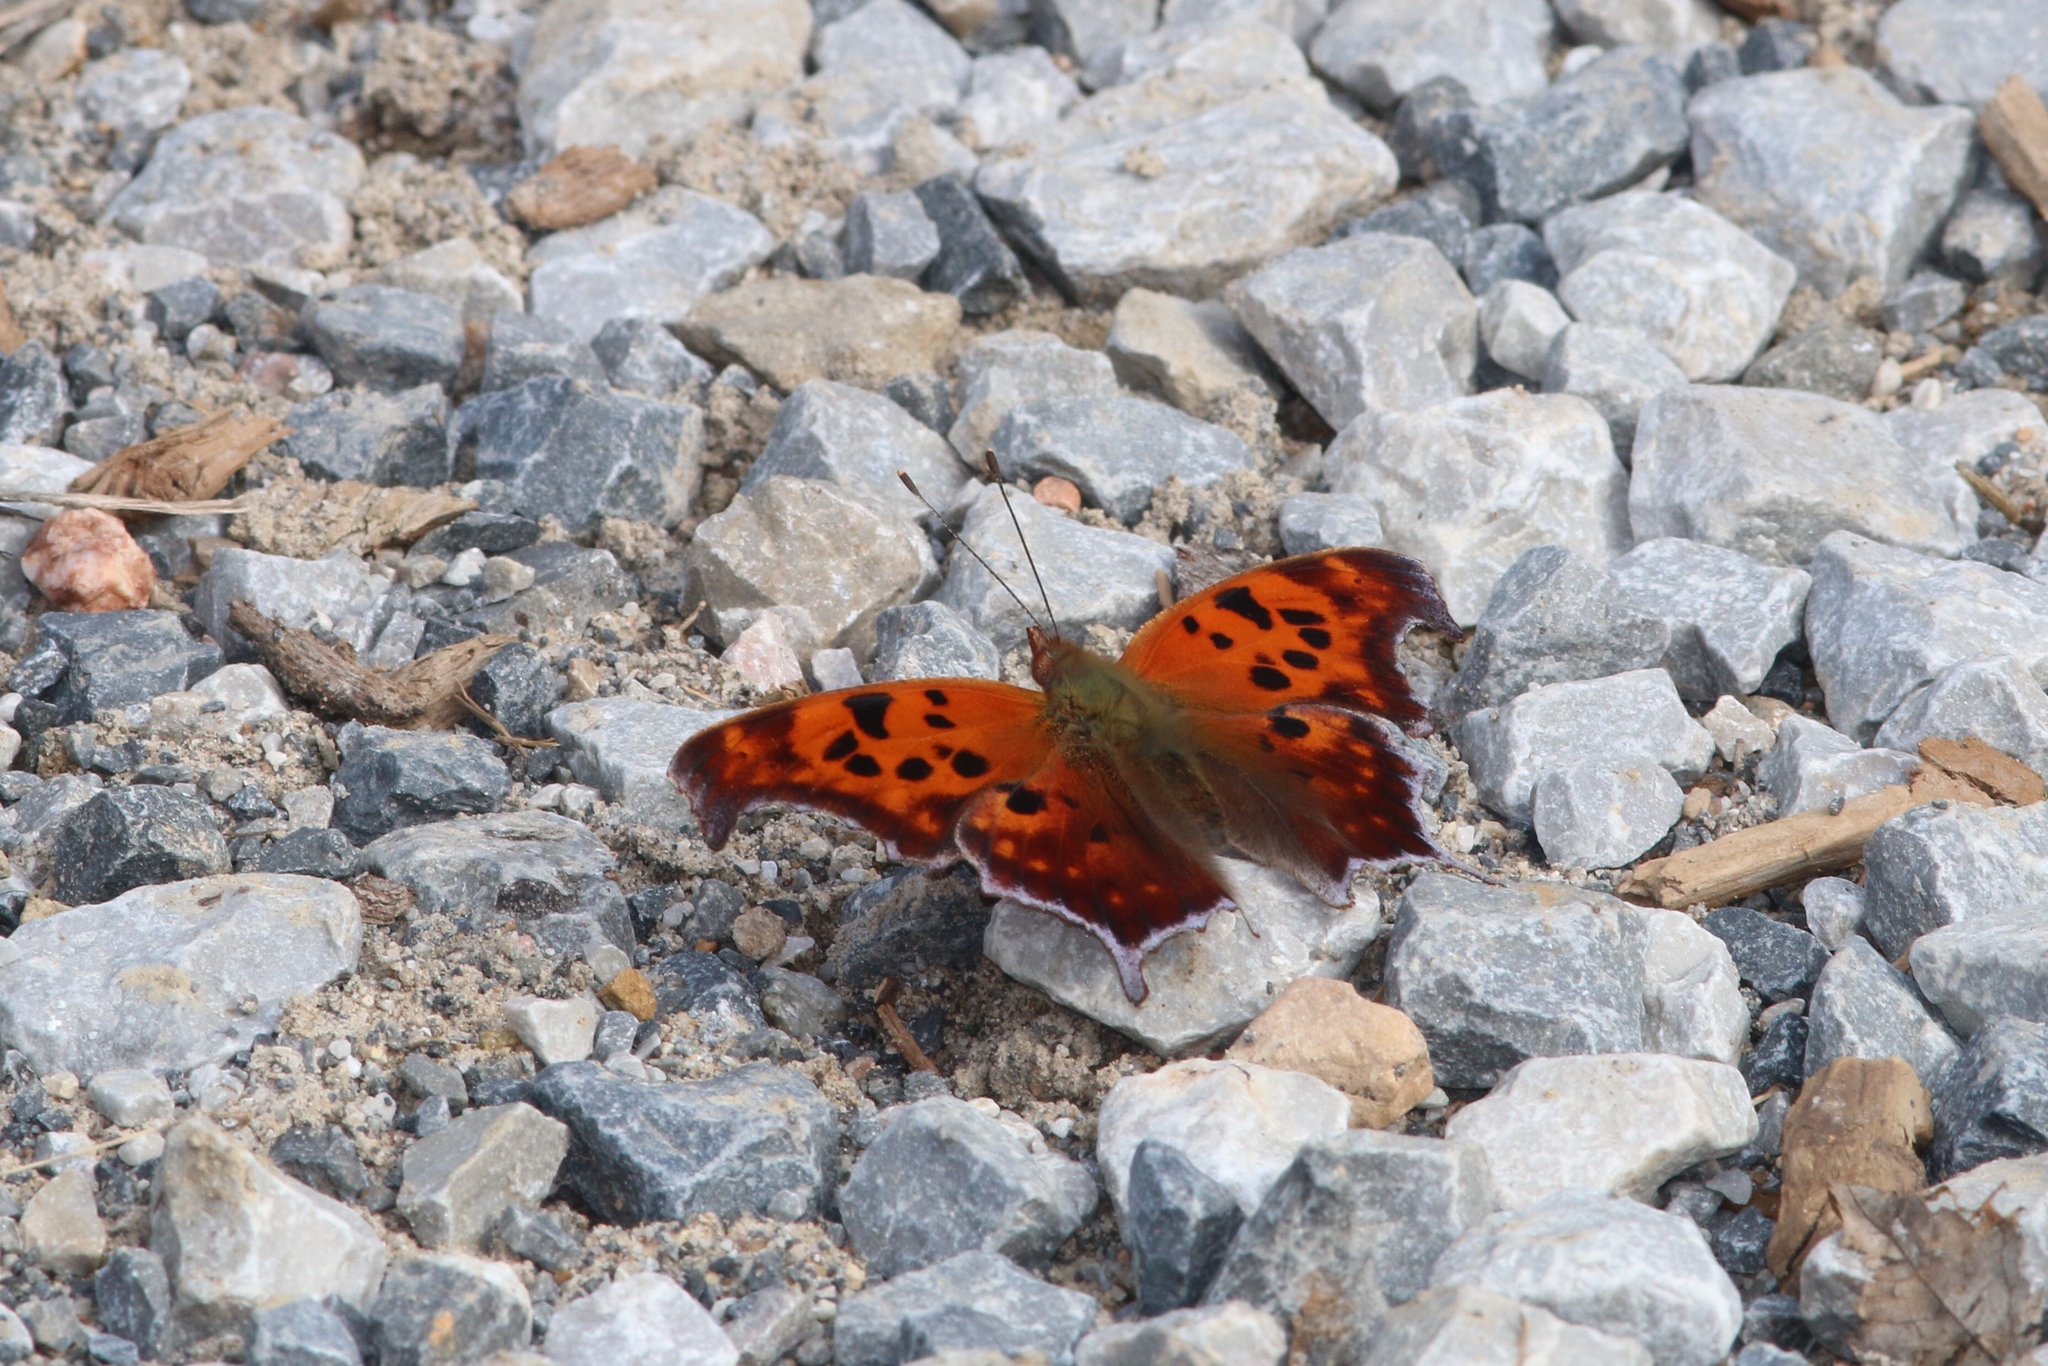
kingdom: Animalia
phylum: Arthropoda
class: Insecta
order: Lepidoptera
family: Nymphalidae
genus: Polygonia
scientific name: Polygonia interrogationis
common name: Question mark
